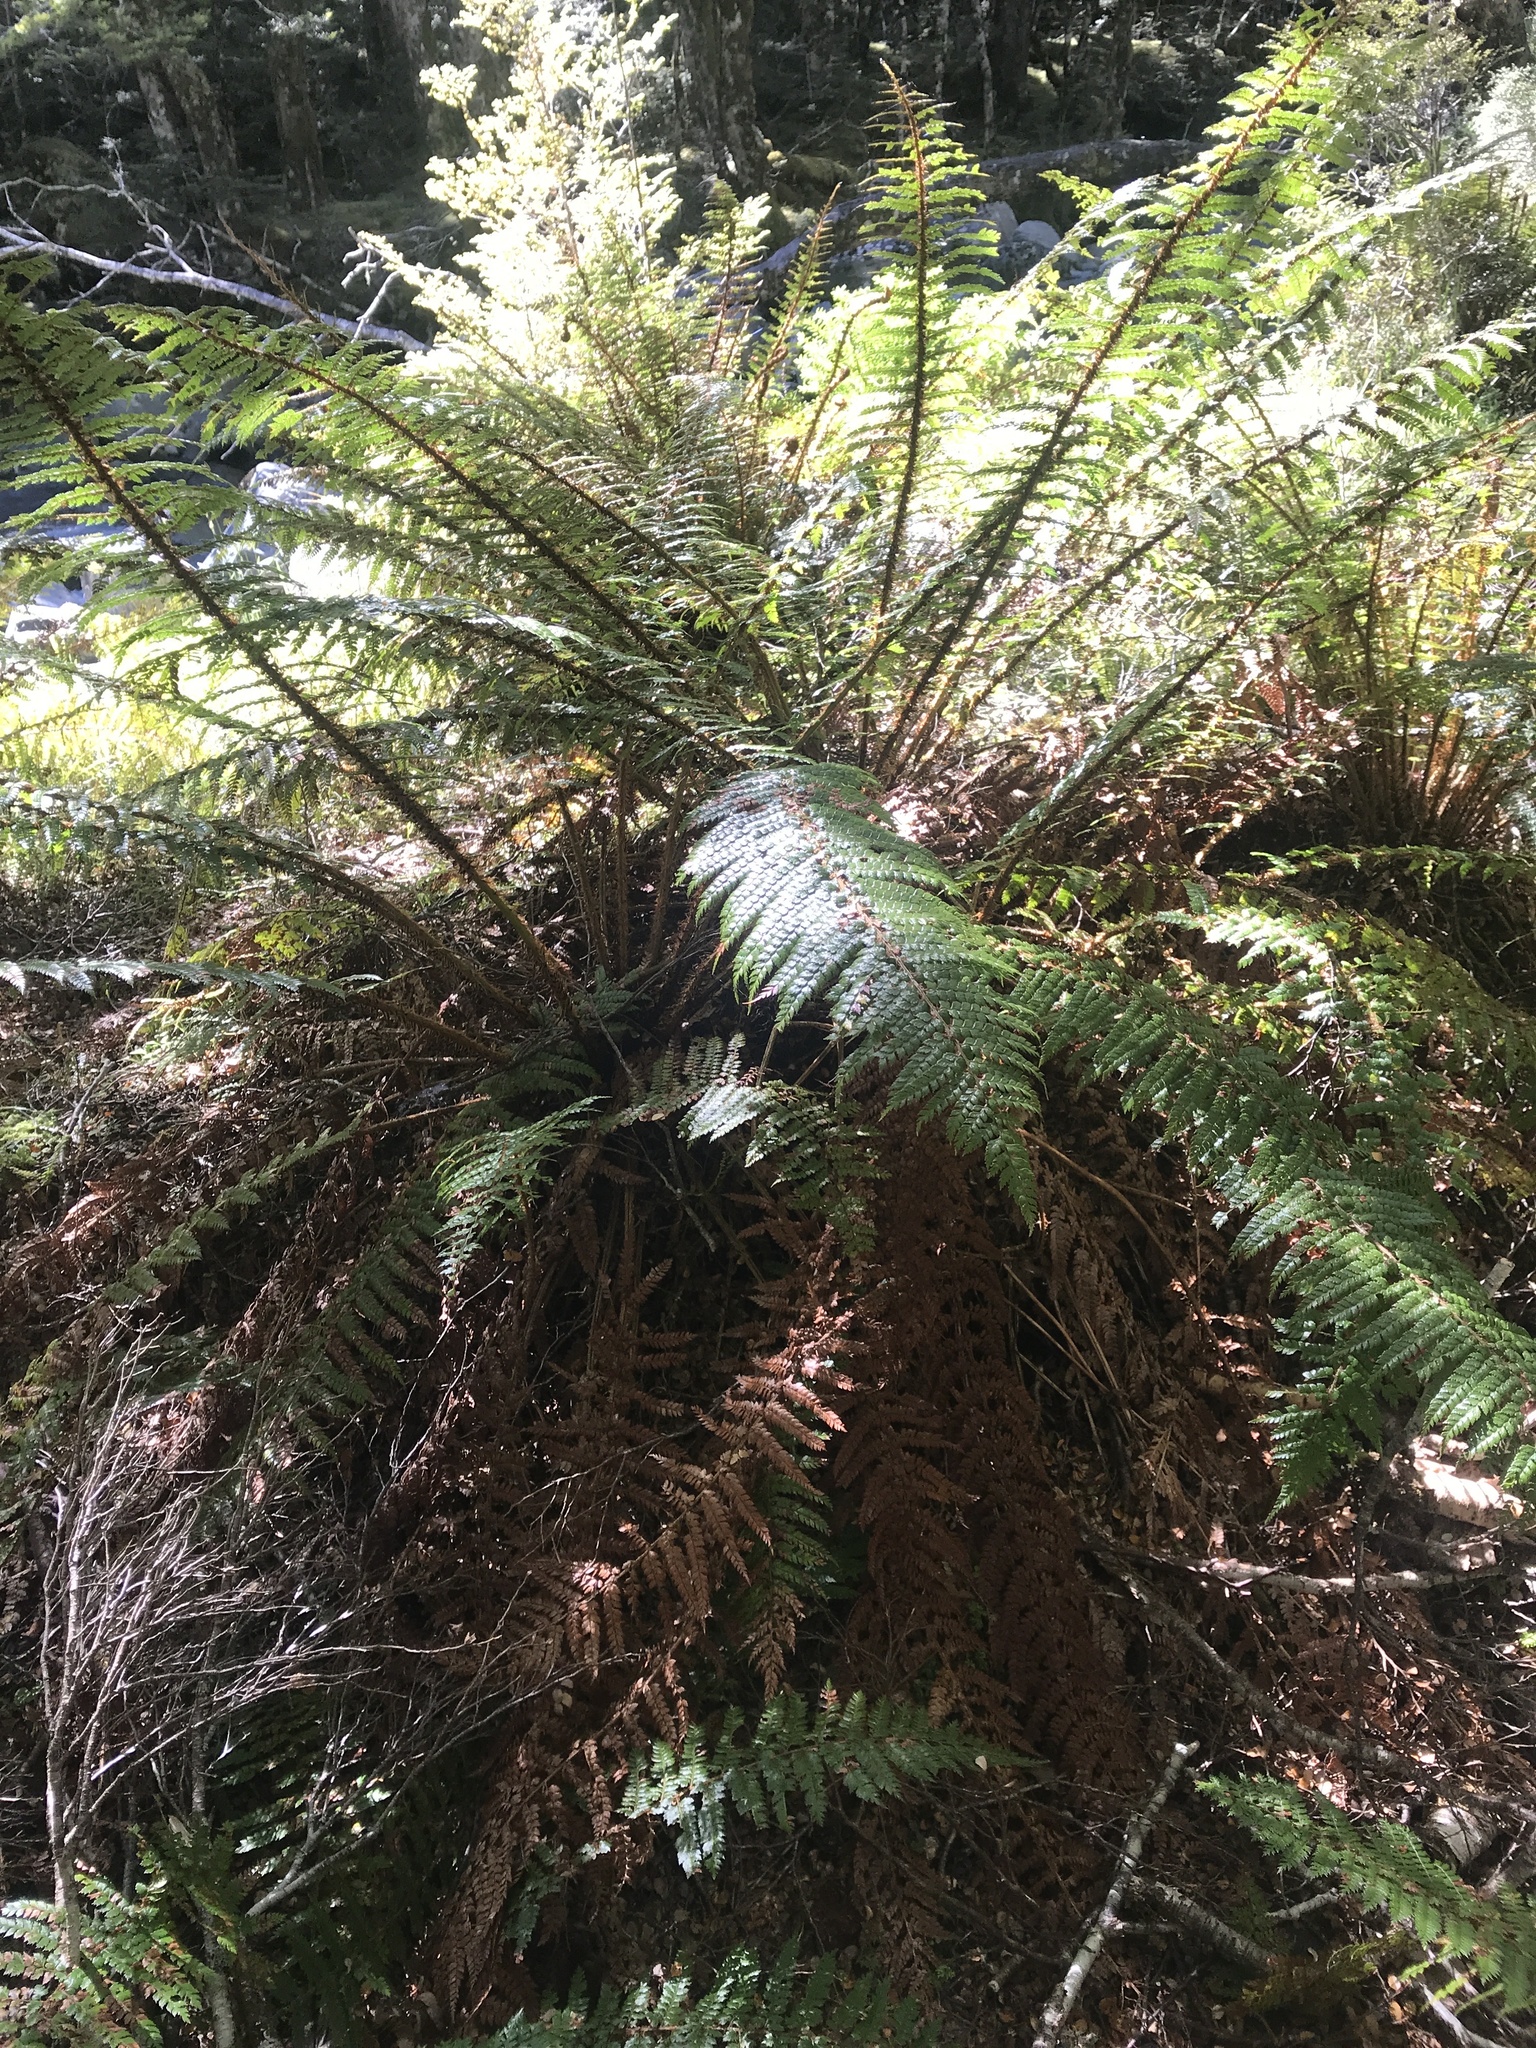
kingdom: Plantae
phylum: Tracheophyta
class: Polypodiopsida
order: Polypodiales
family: Dryopteridaceae
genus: Polystichum
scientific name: Polystichum vestitum
